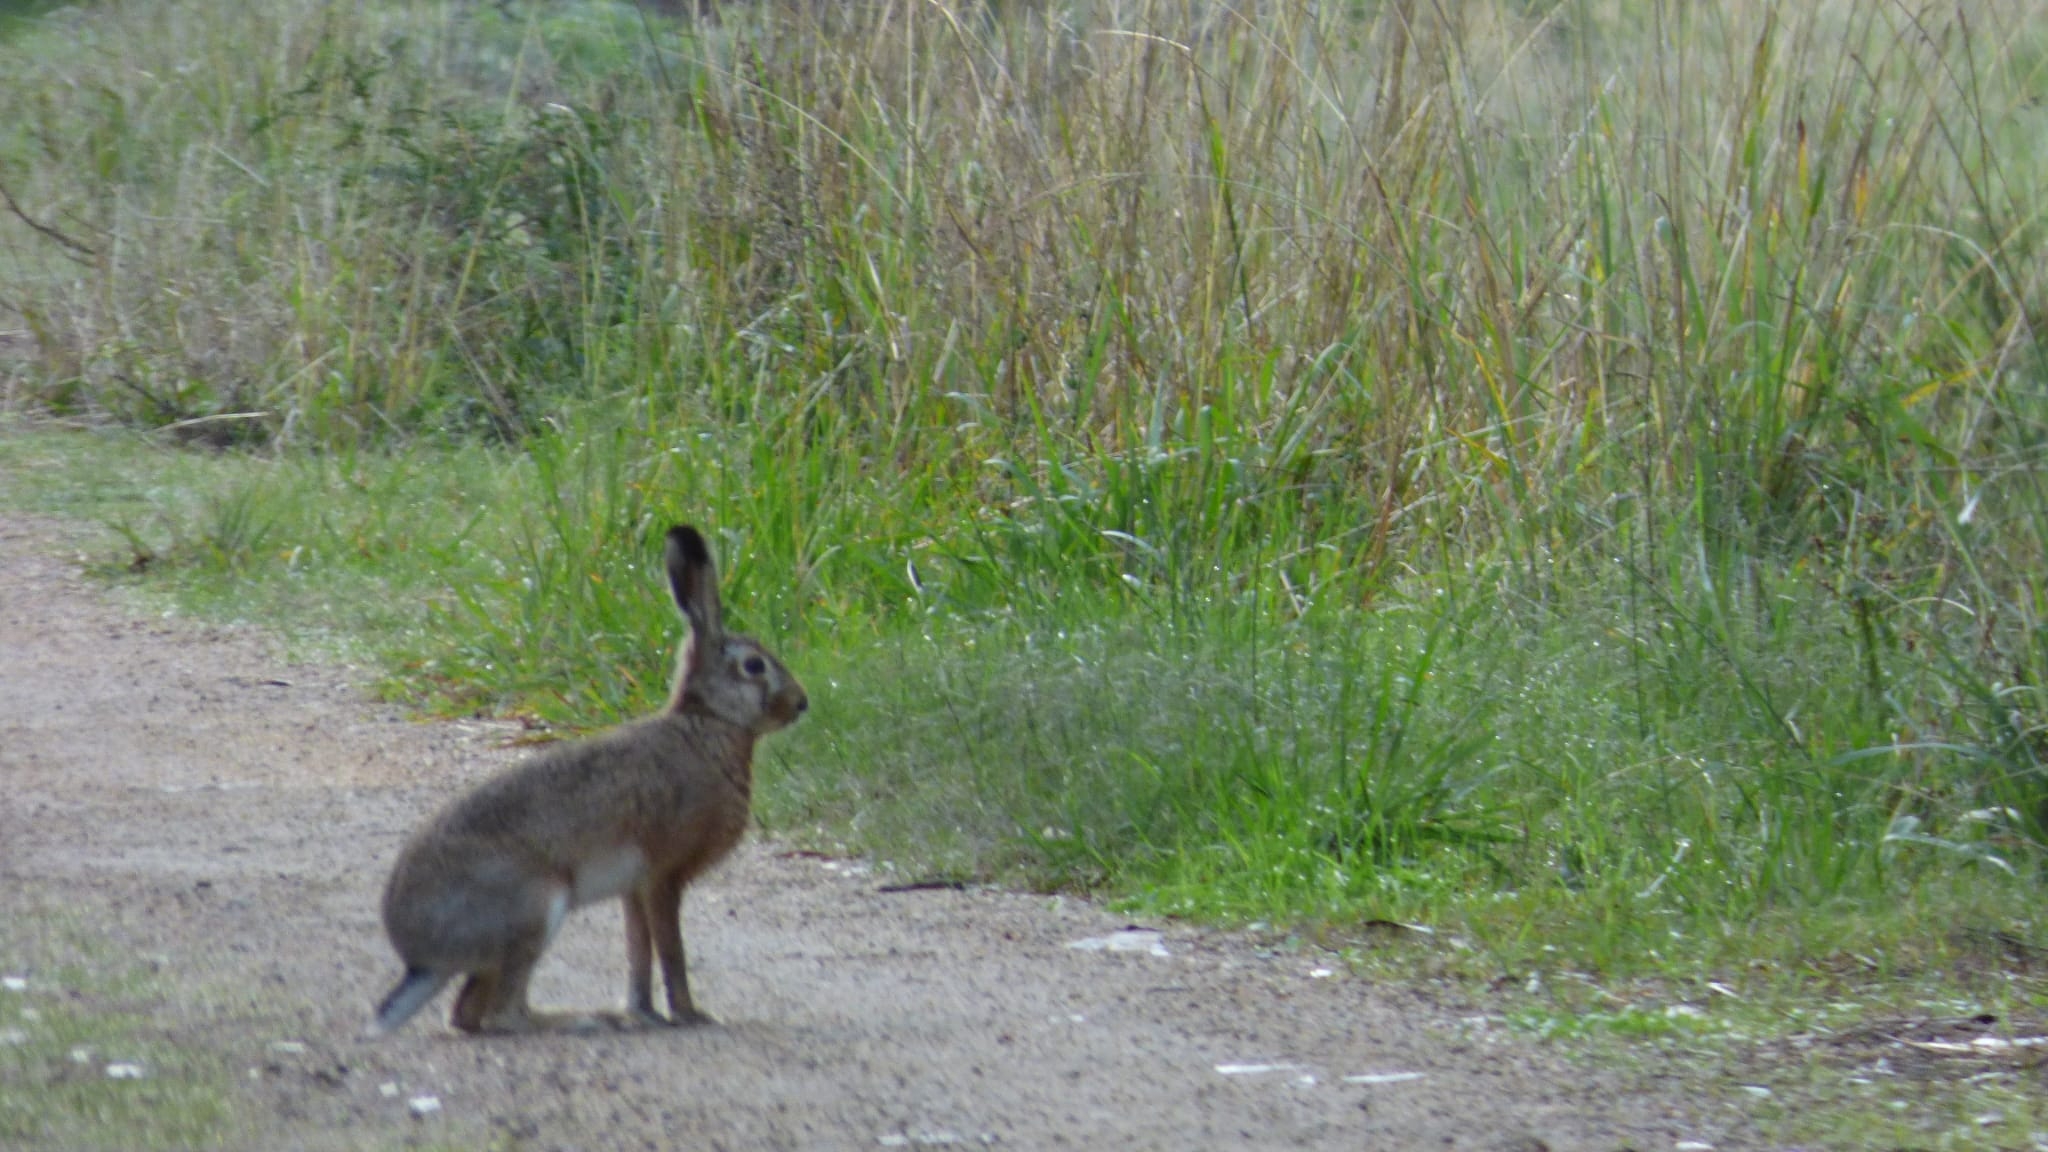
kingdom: Animalia
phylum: Chordata
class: Mammalia
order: Lagomorpha
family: Leporidae
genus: Lepus
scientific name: Lepus europaeus
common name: European hare
